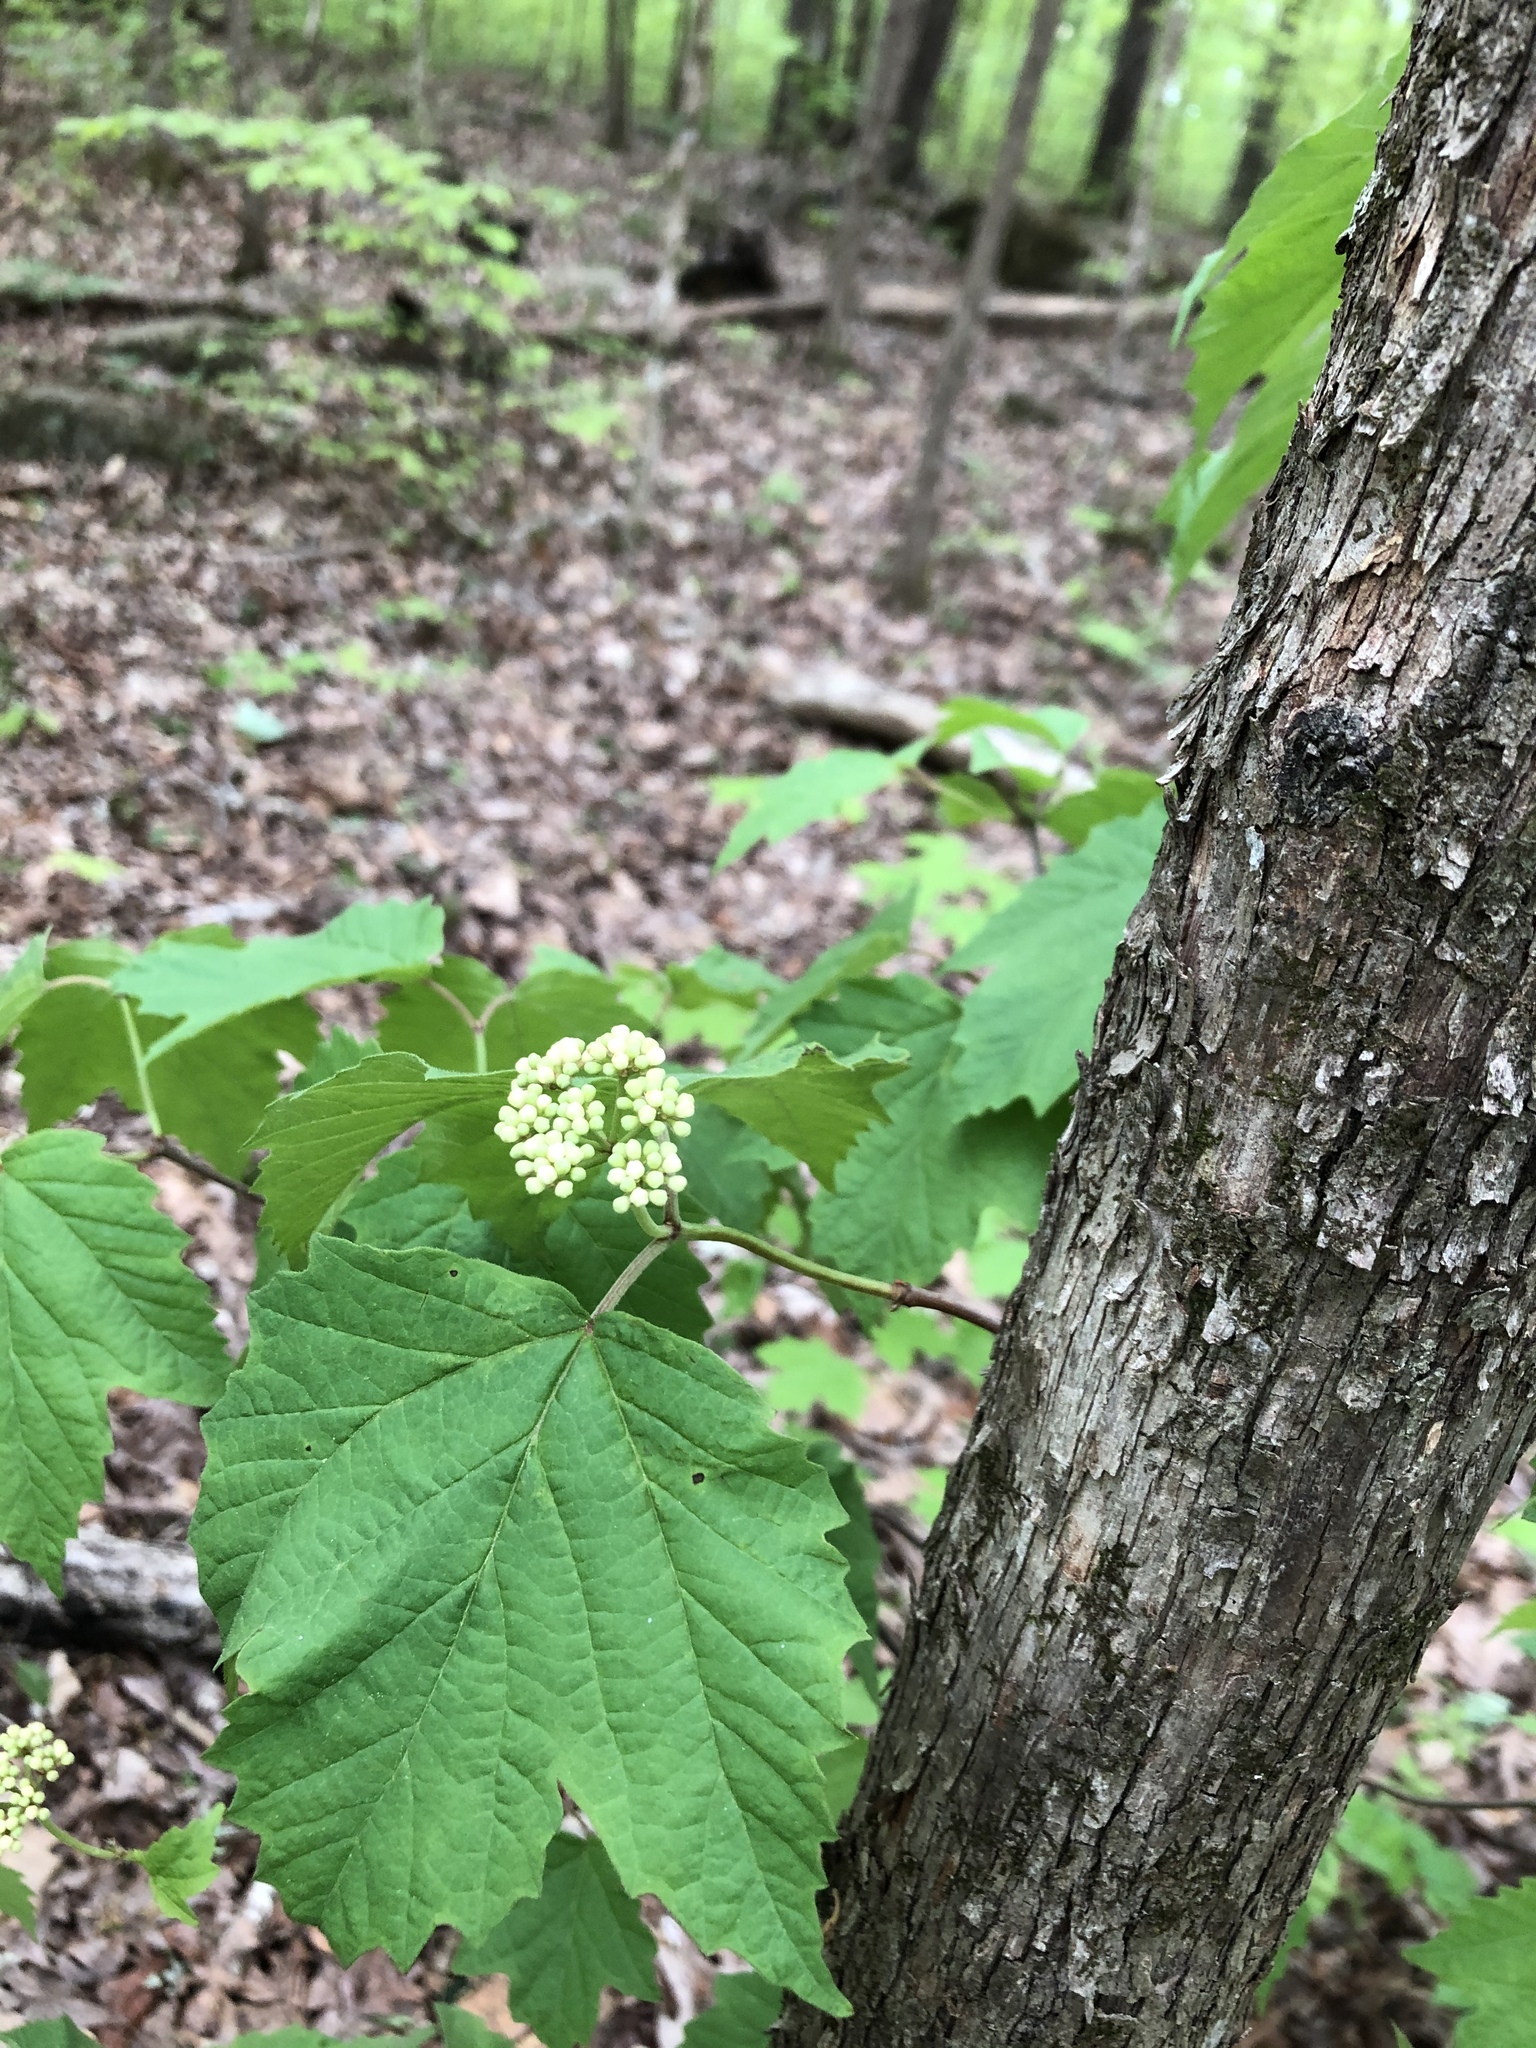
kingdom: Plantae
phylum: Tracheophyta
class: Magnoliopsida
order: Dipsacales
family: Viburnaceae
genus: Viburnum
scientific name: Viburnum acerifolium
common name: Dockmackie
